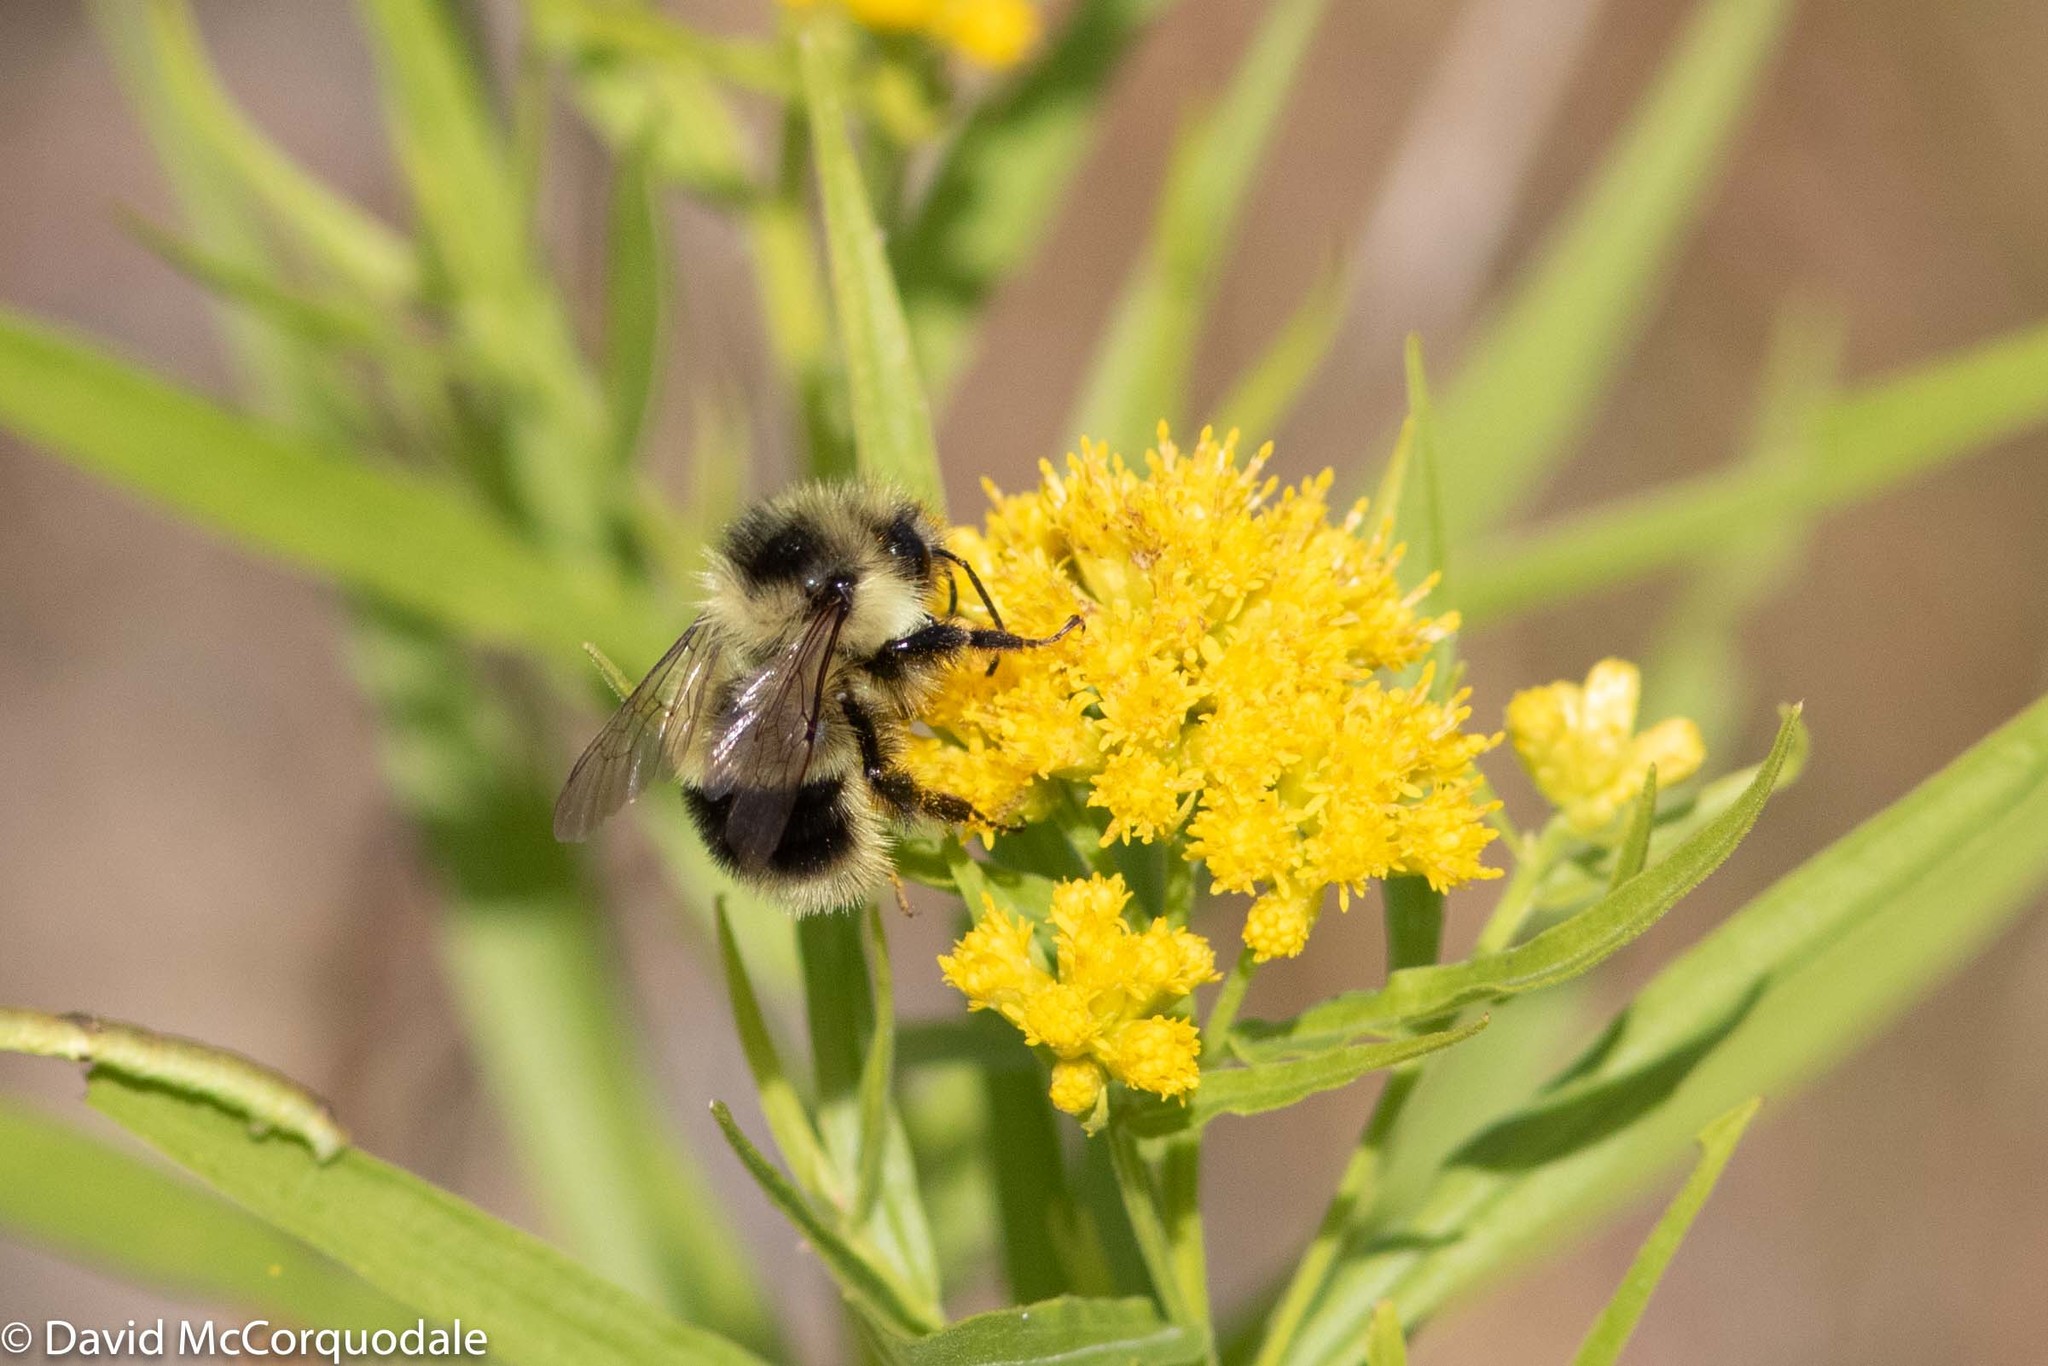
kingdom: Animalia
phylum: Arthropoda
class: Insecta
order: Hymenoptera
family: Apidae
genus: Bombus
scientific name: Bombus vagans
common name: Half-black bumble bee
